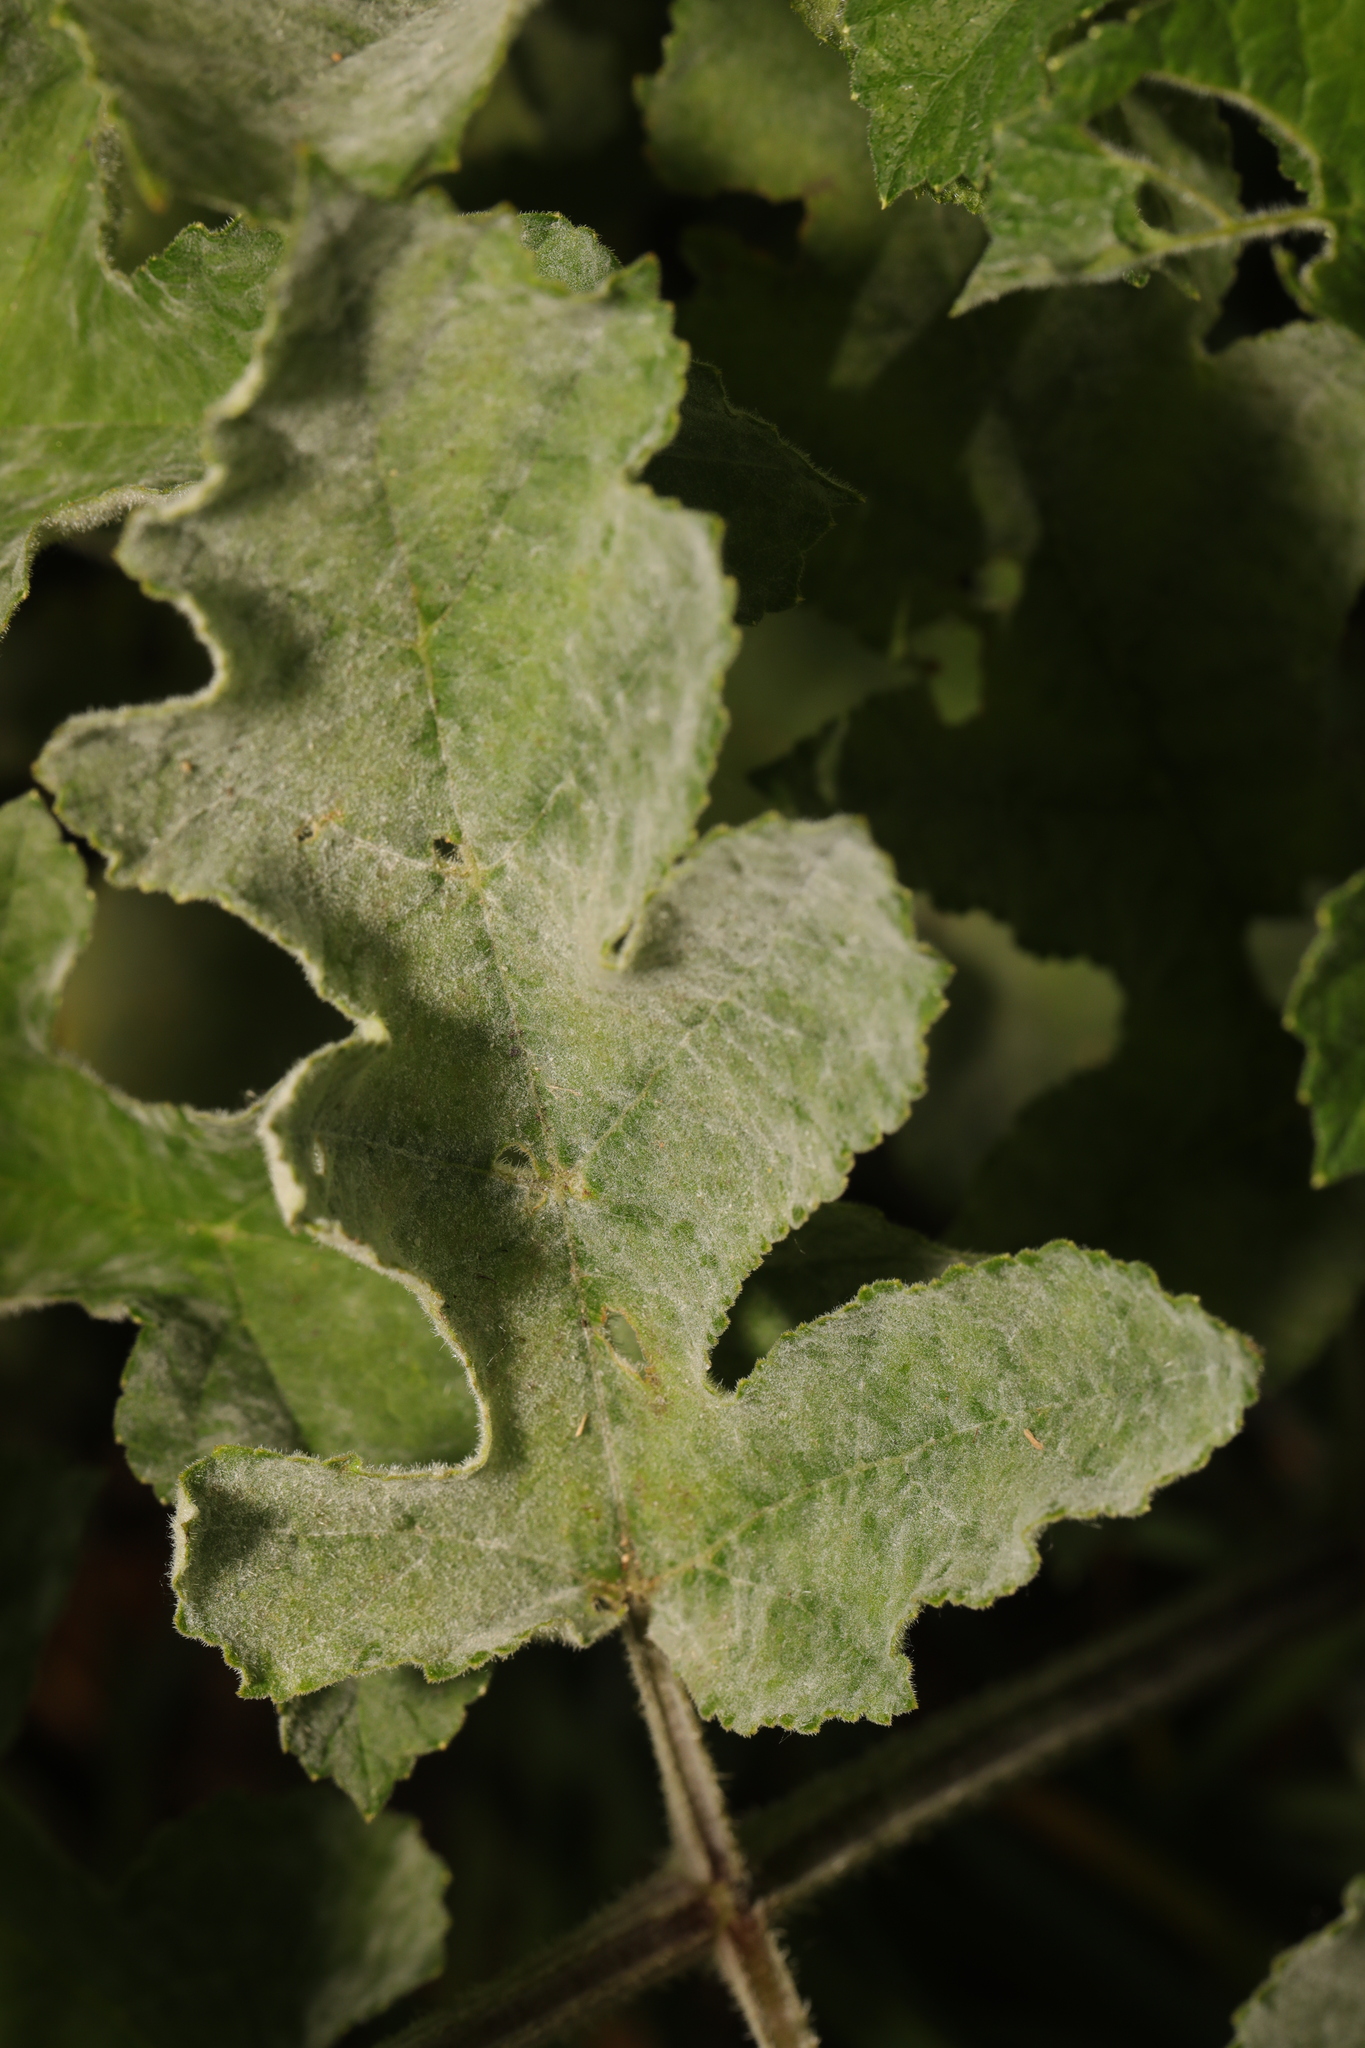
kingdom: Fungi
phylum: Ascomycota
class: Leotiomycetes
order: Helotiales
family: Erysiphaceae
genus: Erysiphe
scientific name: Erysiphe heraclei
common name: Umbellifer mildew
